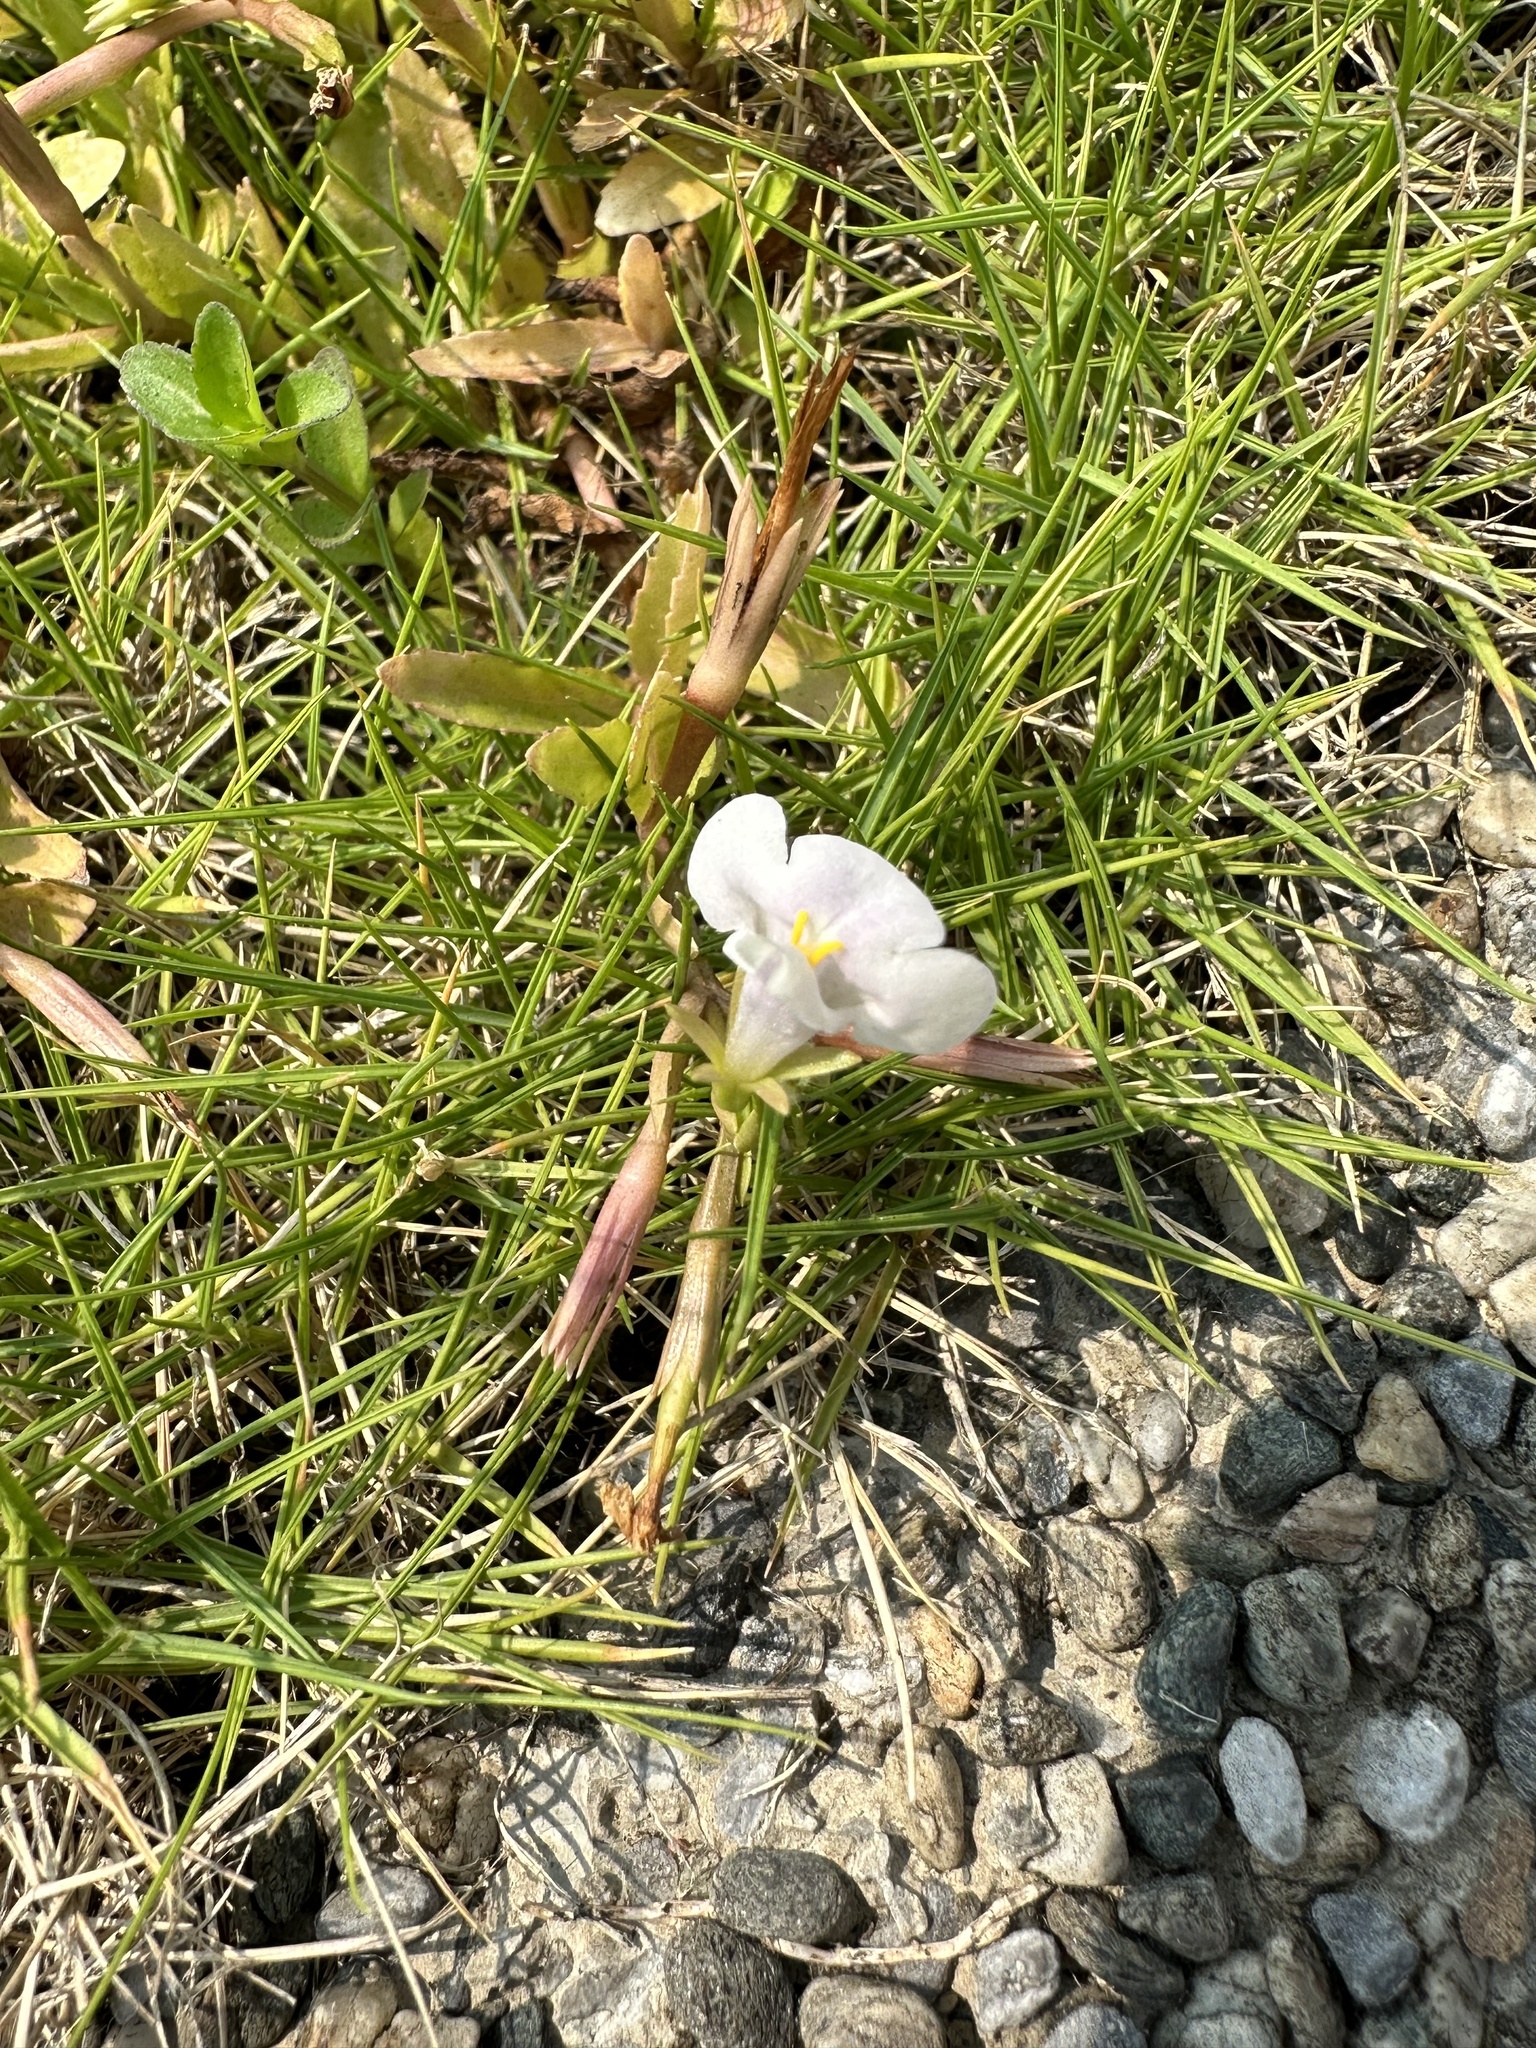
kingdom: Plantae
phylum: Tracheophyta
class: Magnoliopsida
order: Lamiales
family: Linderniaceae
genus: Bonnaya
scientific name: Bonnaya antipoda
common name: Sparrow false pimpernel
